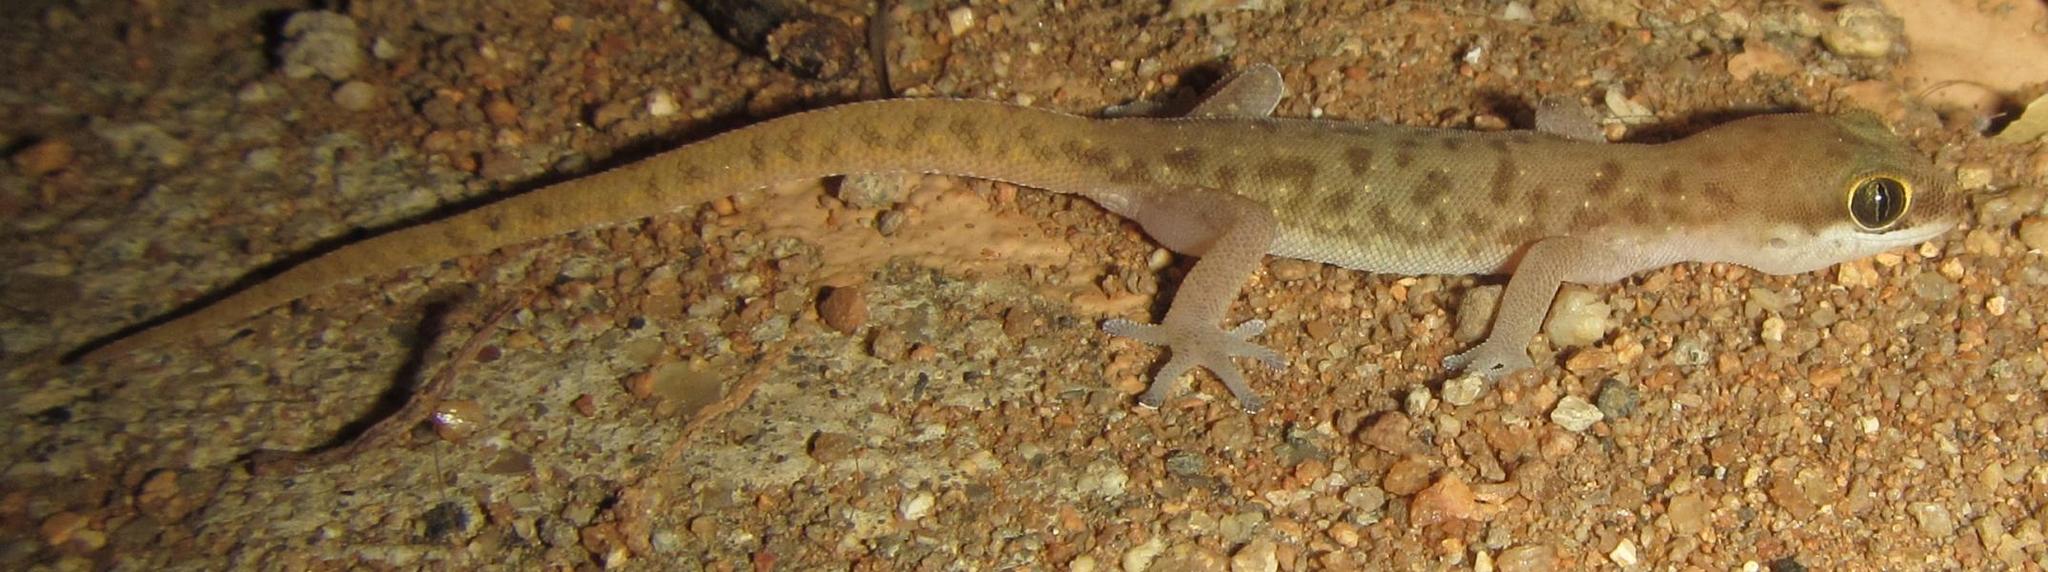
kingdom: Animalia
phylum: Chordata
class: Squamata
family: Gekkonidae
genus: Pachydactylus
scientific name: Pachydactylus punctatus
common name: Pointed thick-toed gecko
